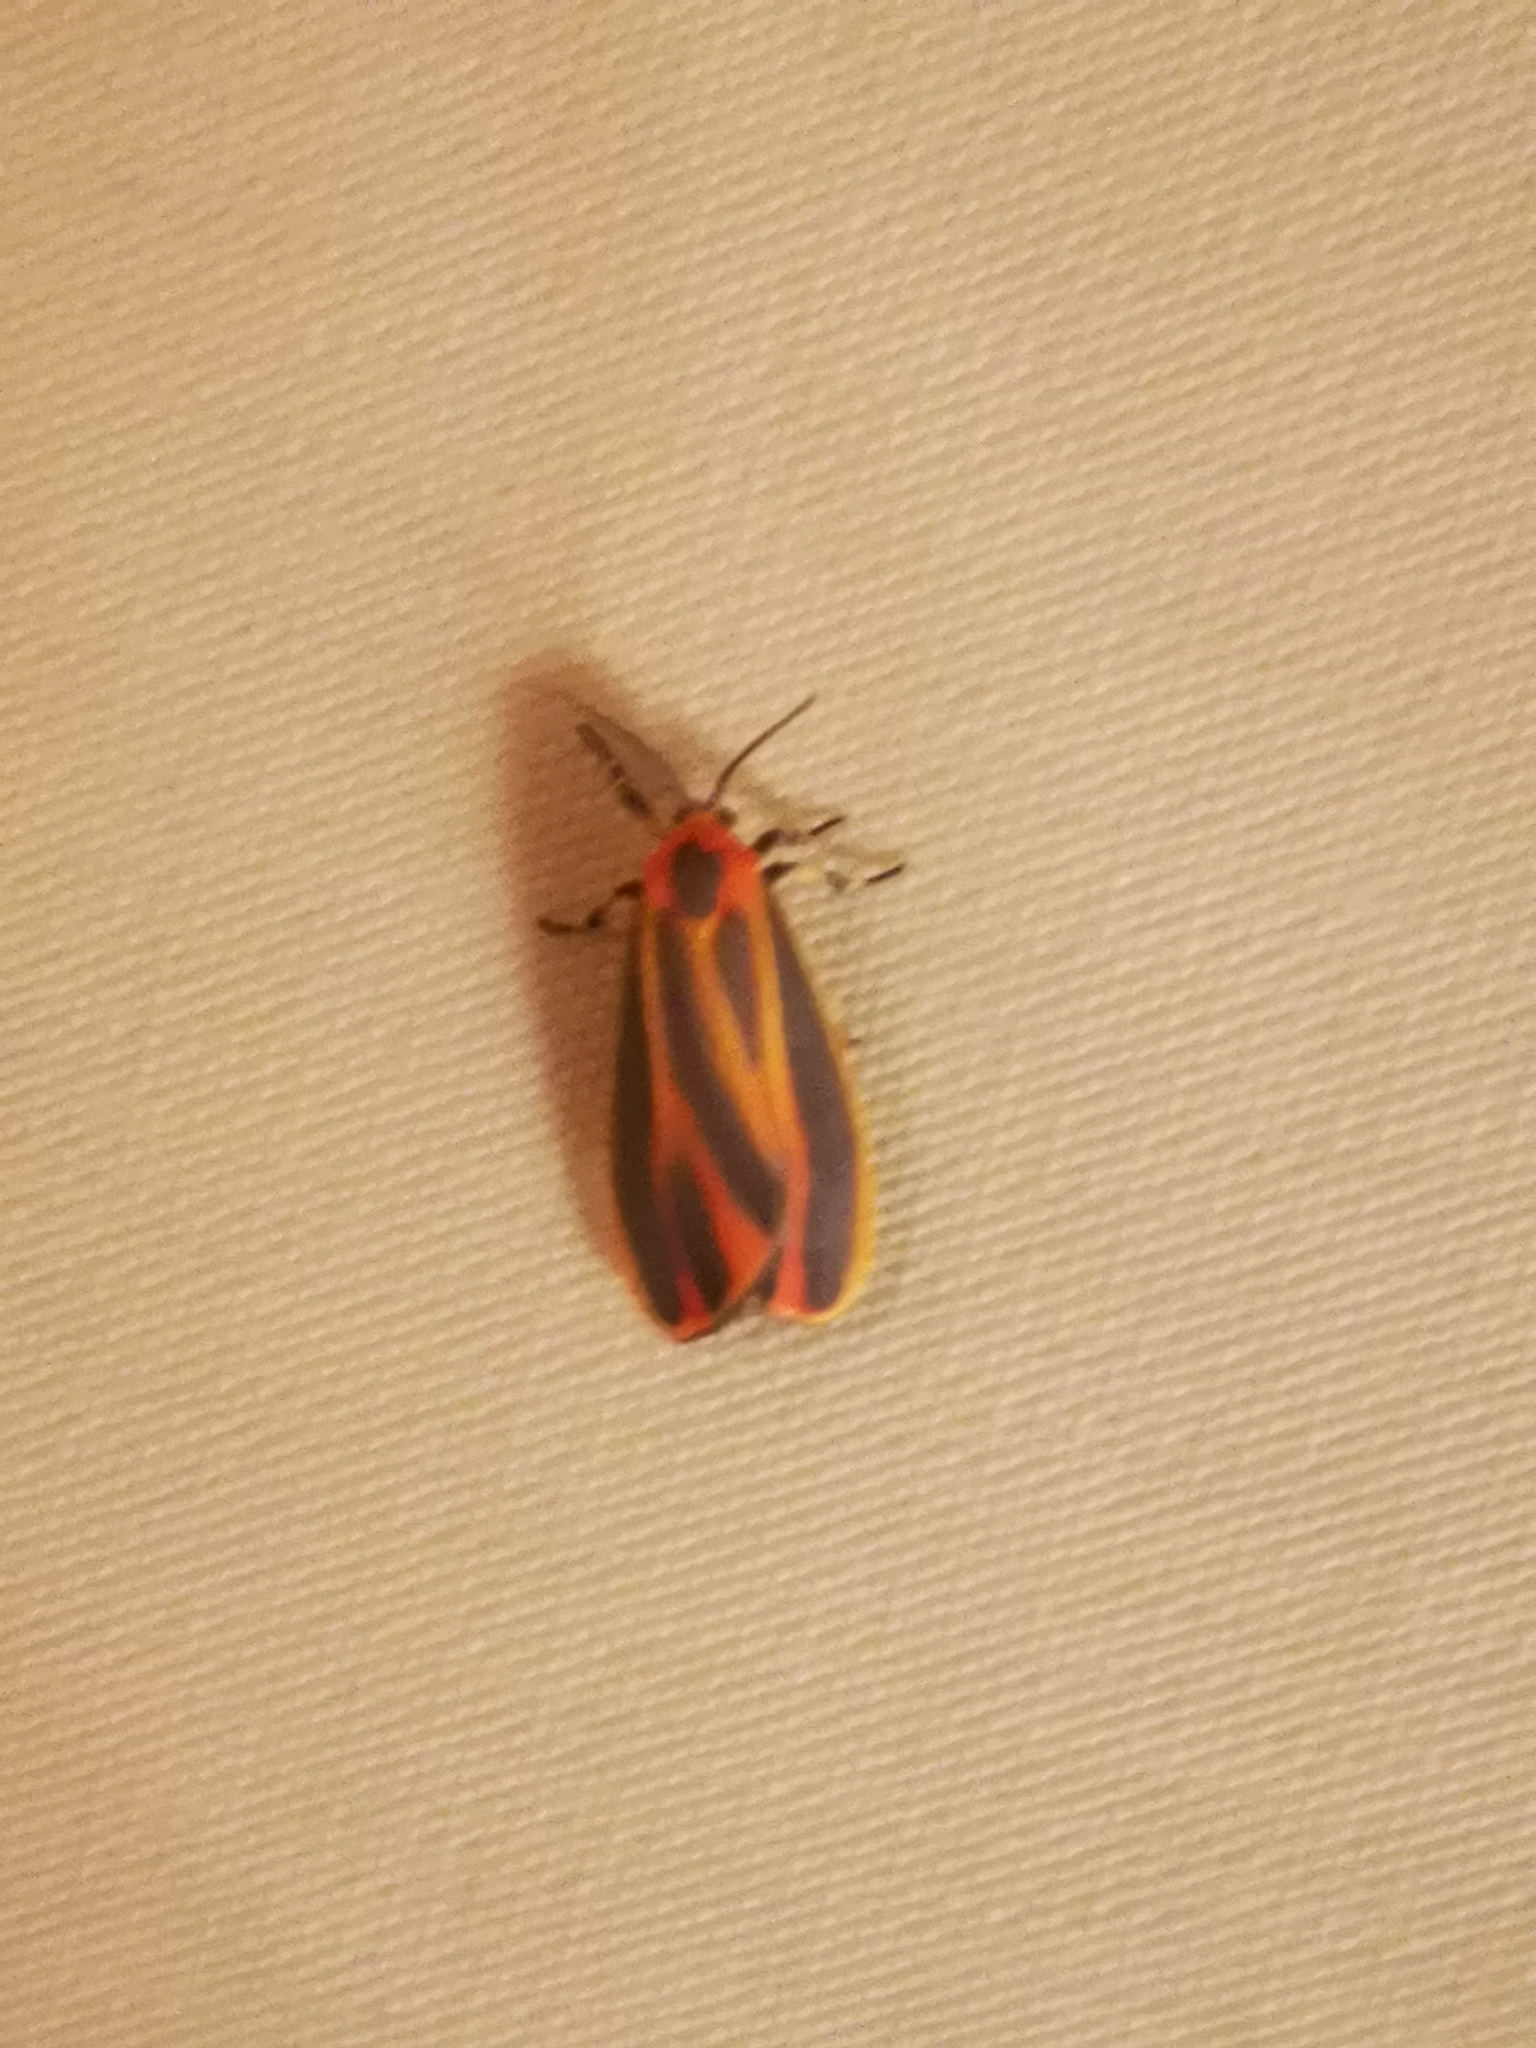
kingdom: Animalia
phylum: Arthropoda
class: Insecta
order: Lepidoptera
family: Erebidae
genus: Hypoprepia
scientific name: Hypoprepia fucosa
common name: Painted lichen moth
